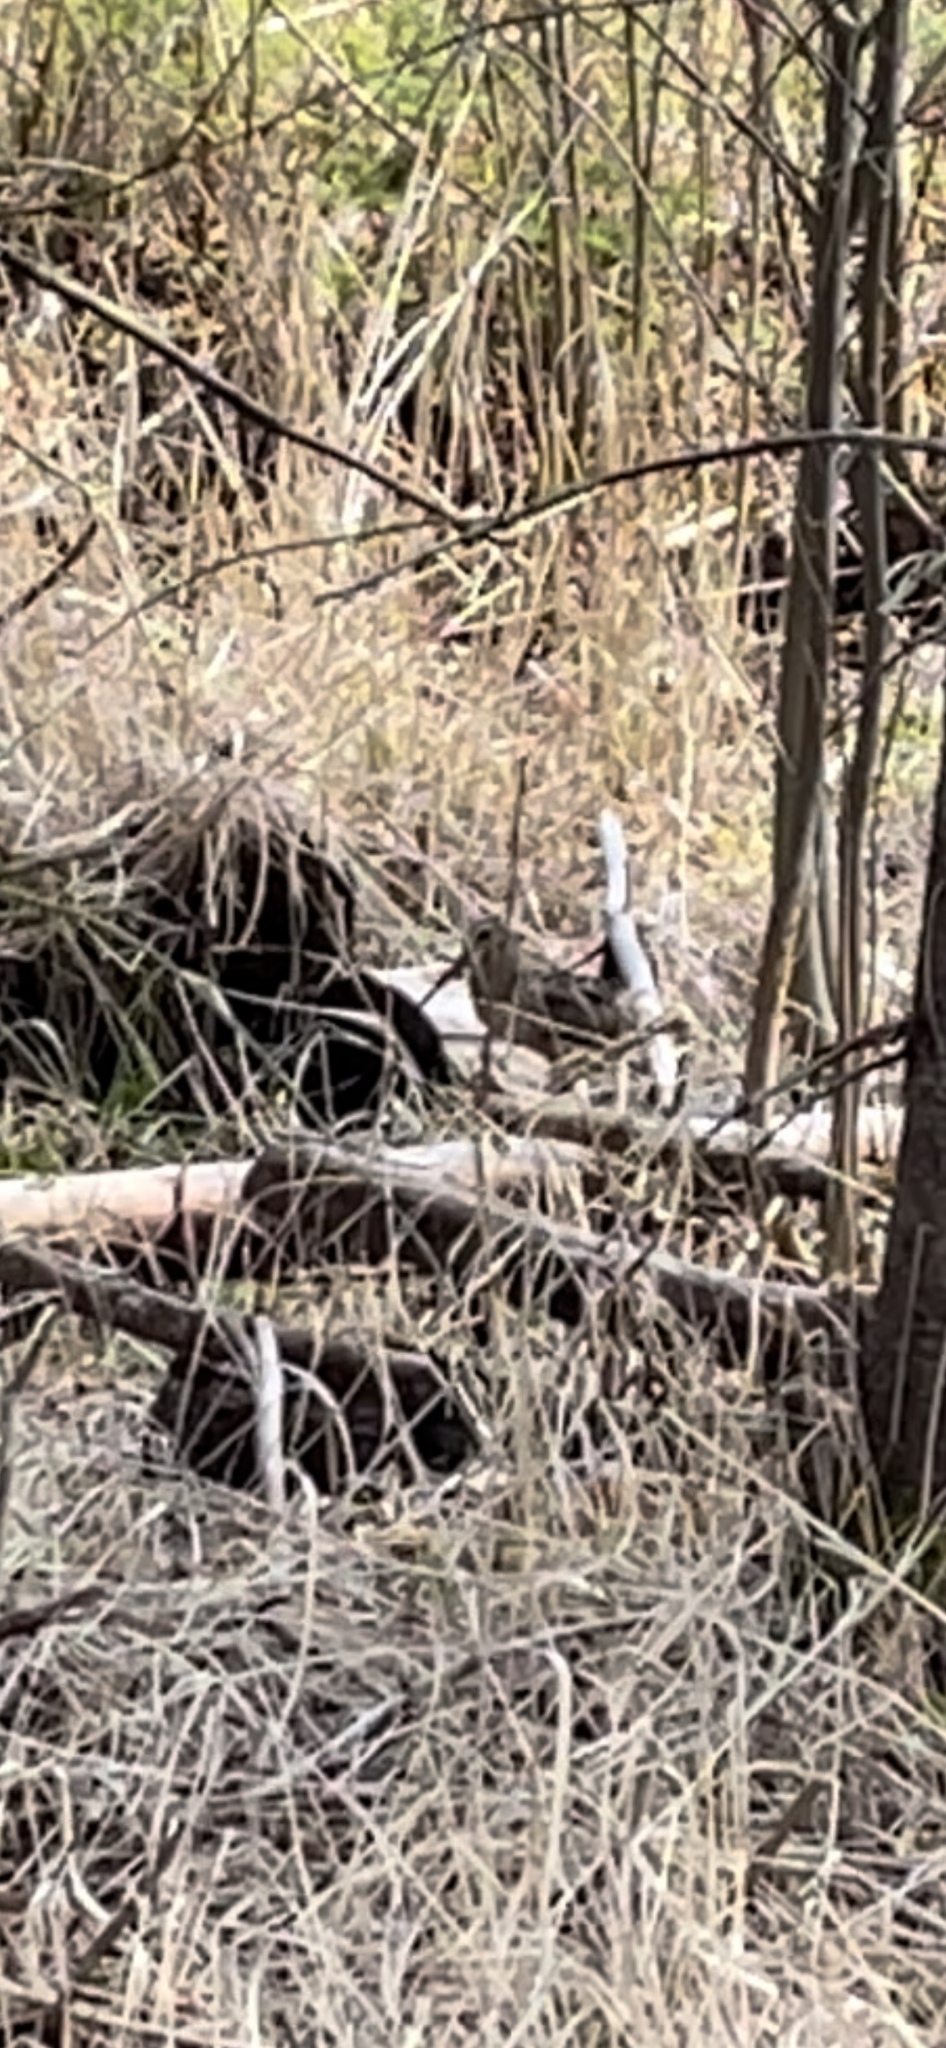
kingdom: Animalia
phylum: Chordata
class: Aves
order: Charadriiformes
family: Scolopacidae
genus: Scolopax
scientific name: Scolopax minor
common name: American woodcock
